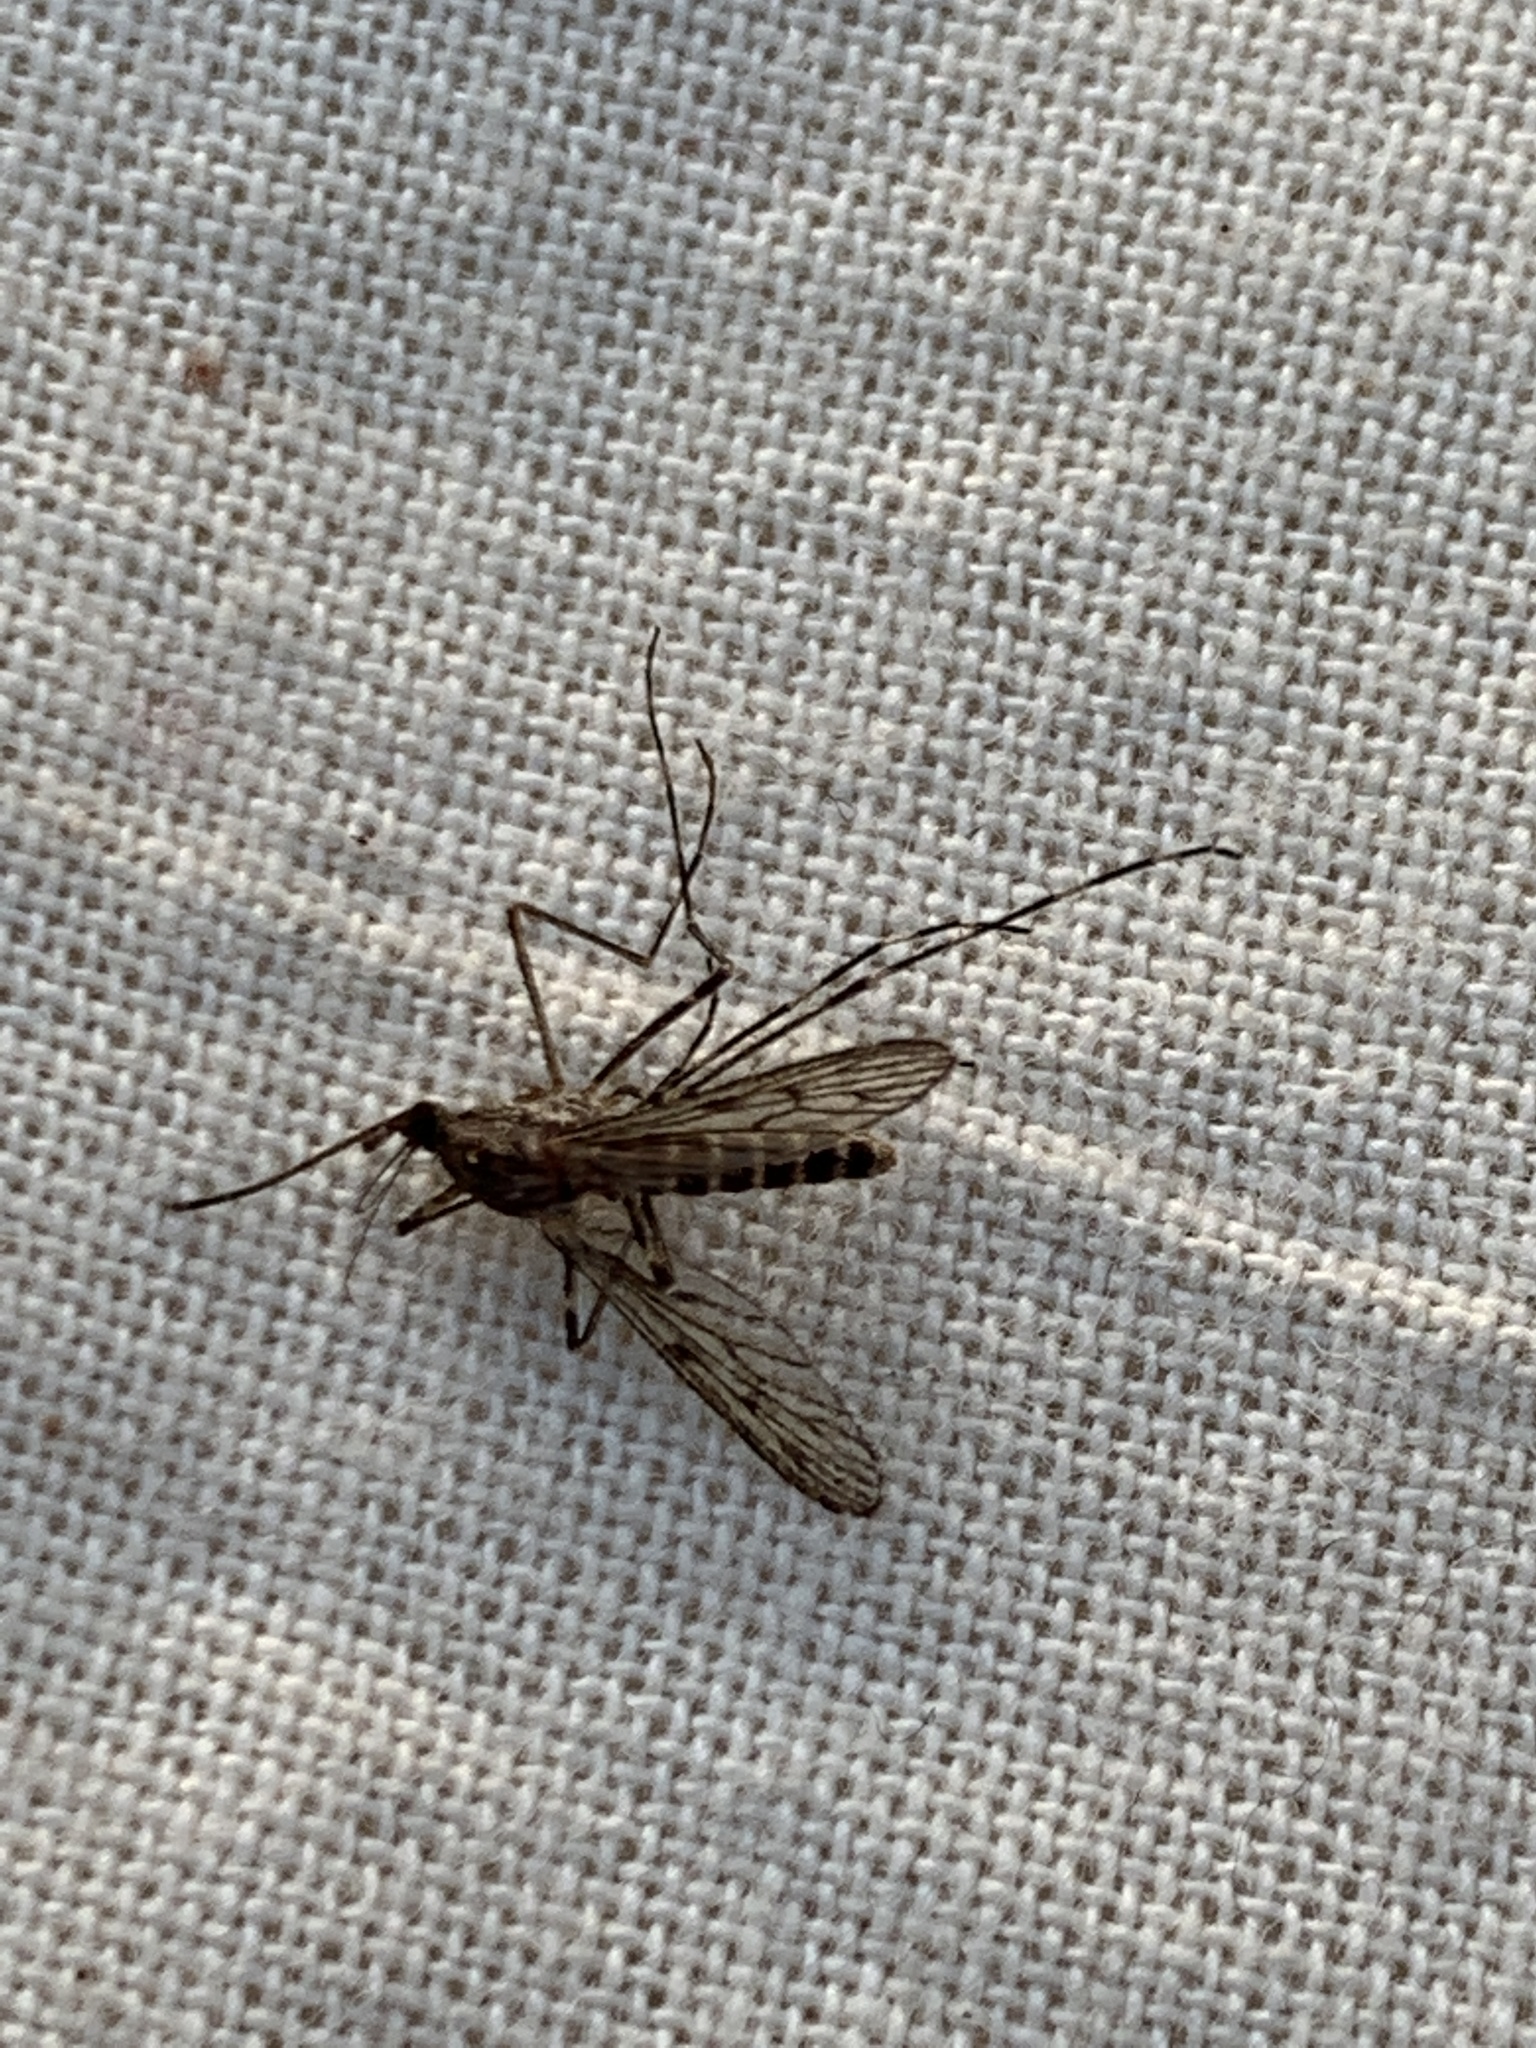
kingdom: Animalia
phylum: Arthropoda
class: Insecta
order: Diptera
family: Culicidae
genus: Culiseta
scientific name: Culiseta annulata
